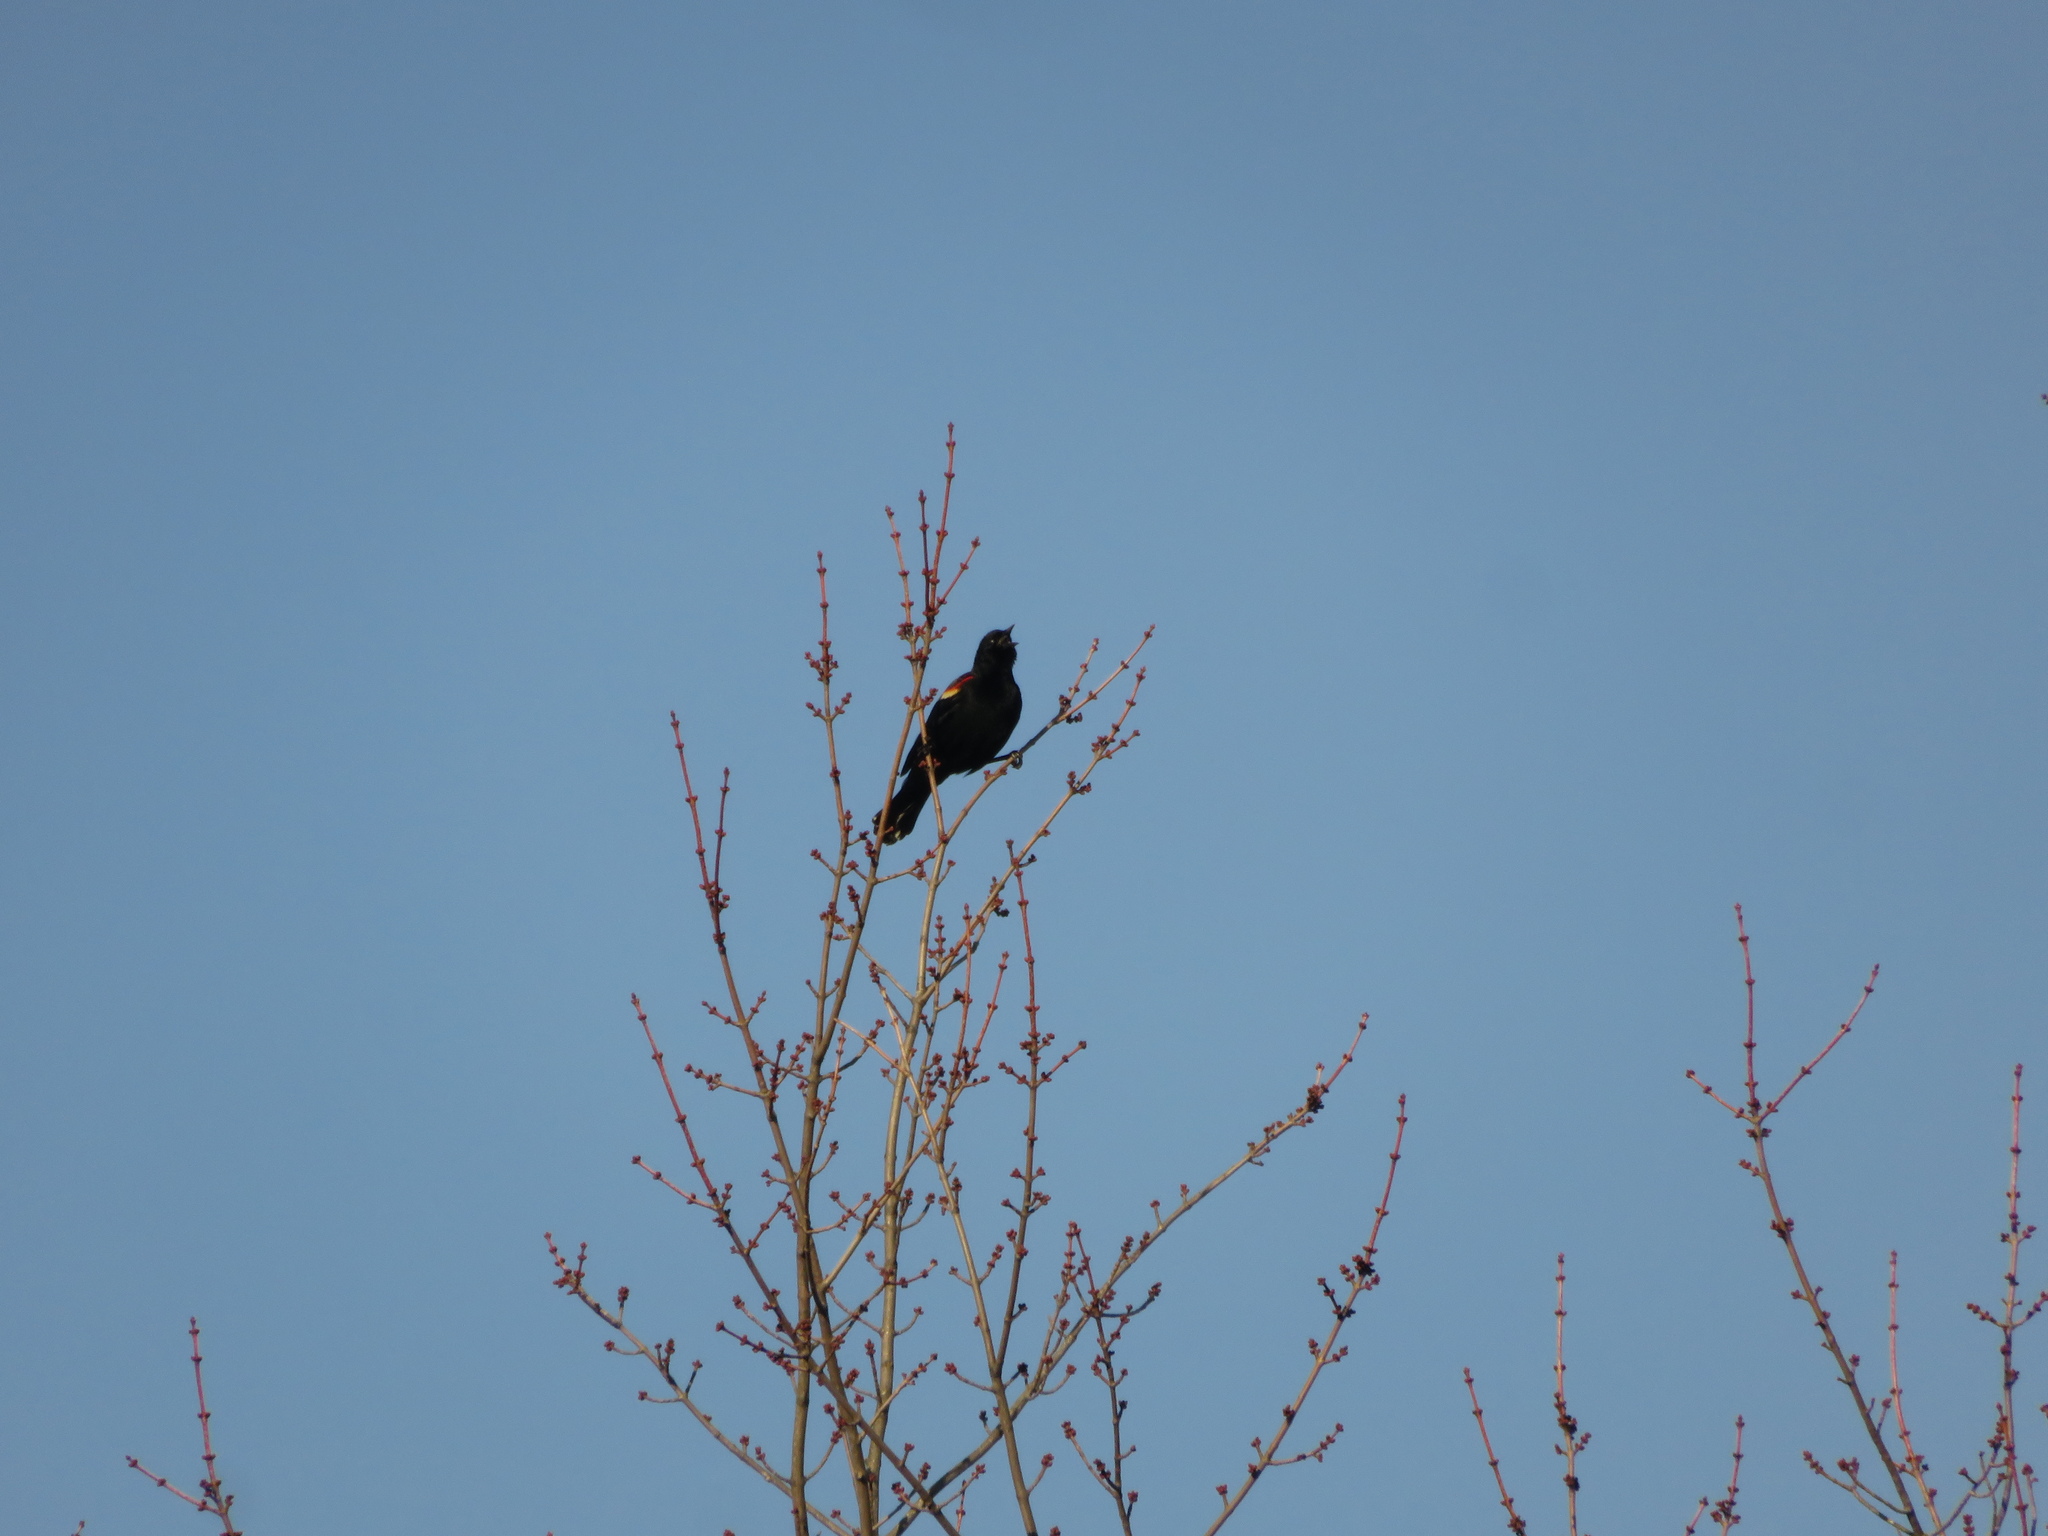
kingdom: Animalia
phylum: Chordata
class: Aves
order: Passeriformes
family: Icteridae
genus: Agelaius
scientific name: Agelaius phoeniceus
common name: Red-winged blackbird
